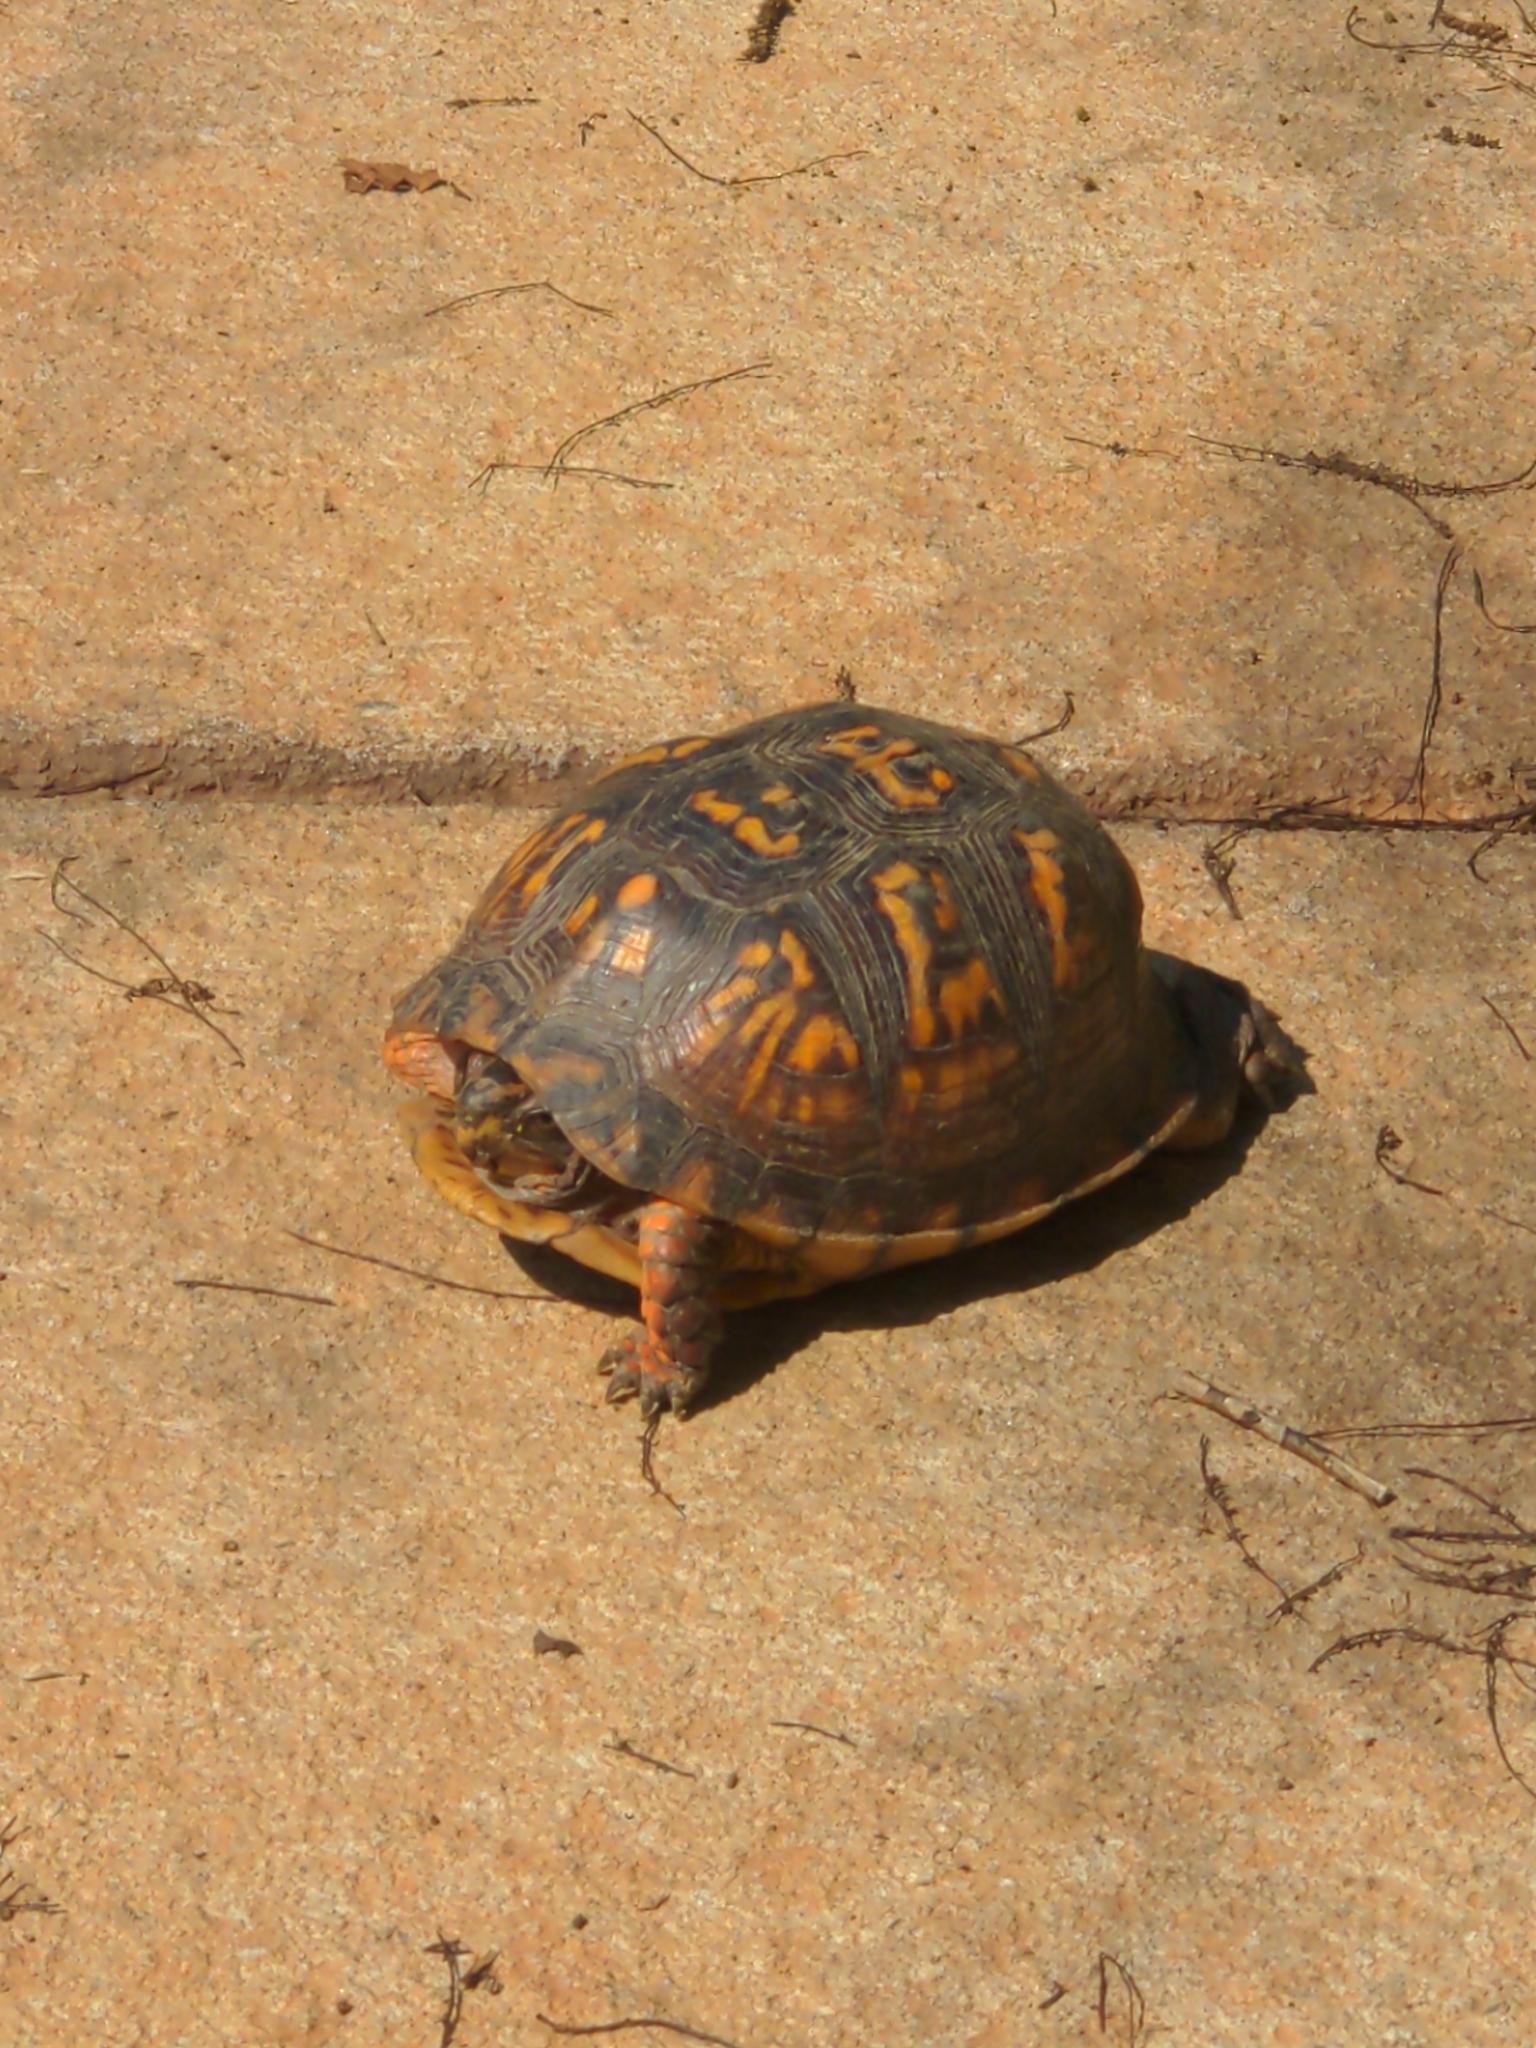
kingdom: Animalia
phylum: Chordata
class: Testudines
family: Emydidae
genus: Terrapene
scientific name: Terrapene carolina
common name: Common box turtle
